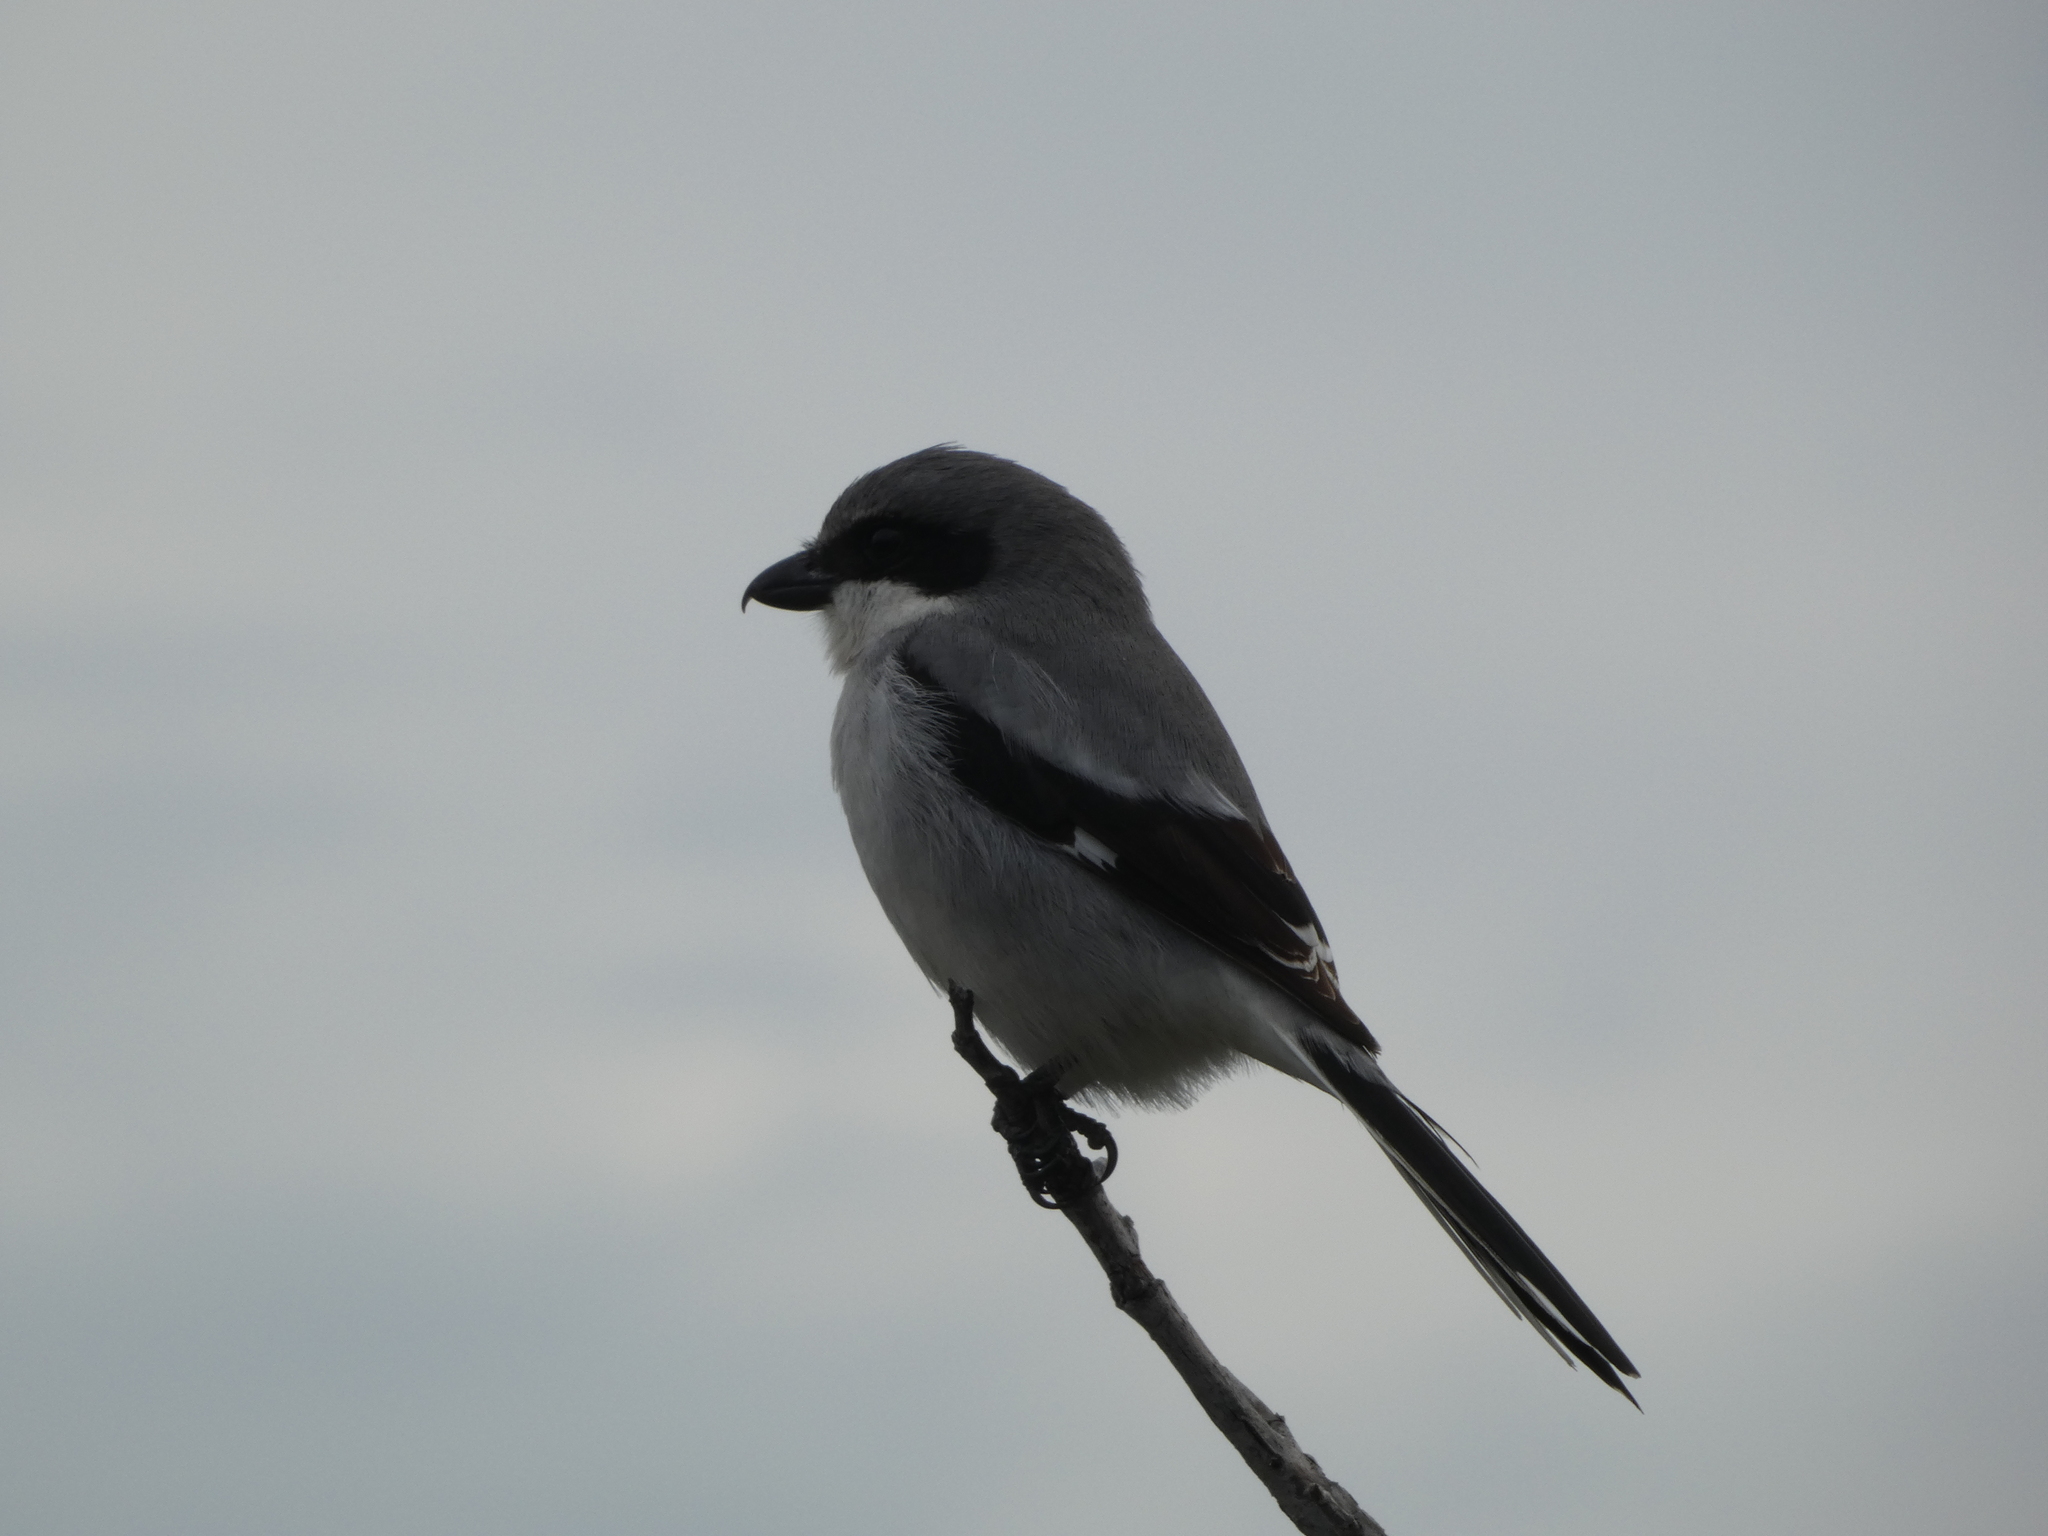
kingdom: Animalia
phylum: Chordata
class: Aves
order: Passeriformes
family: Laniidae
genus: Lanius
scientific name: Lanius ludovicianus
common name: Loggerhead shrike
